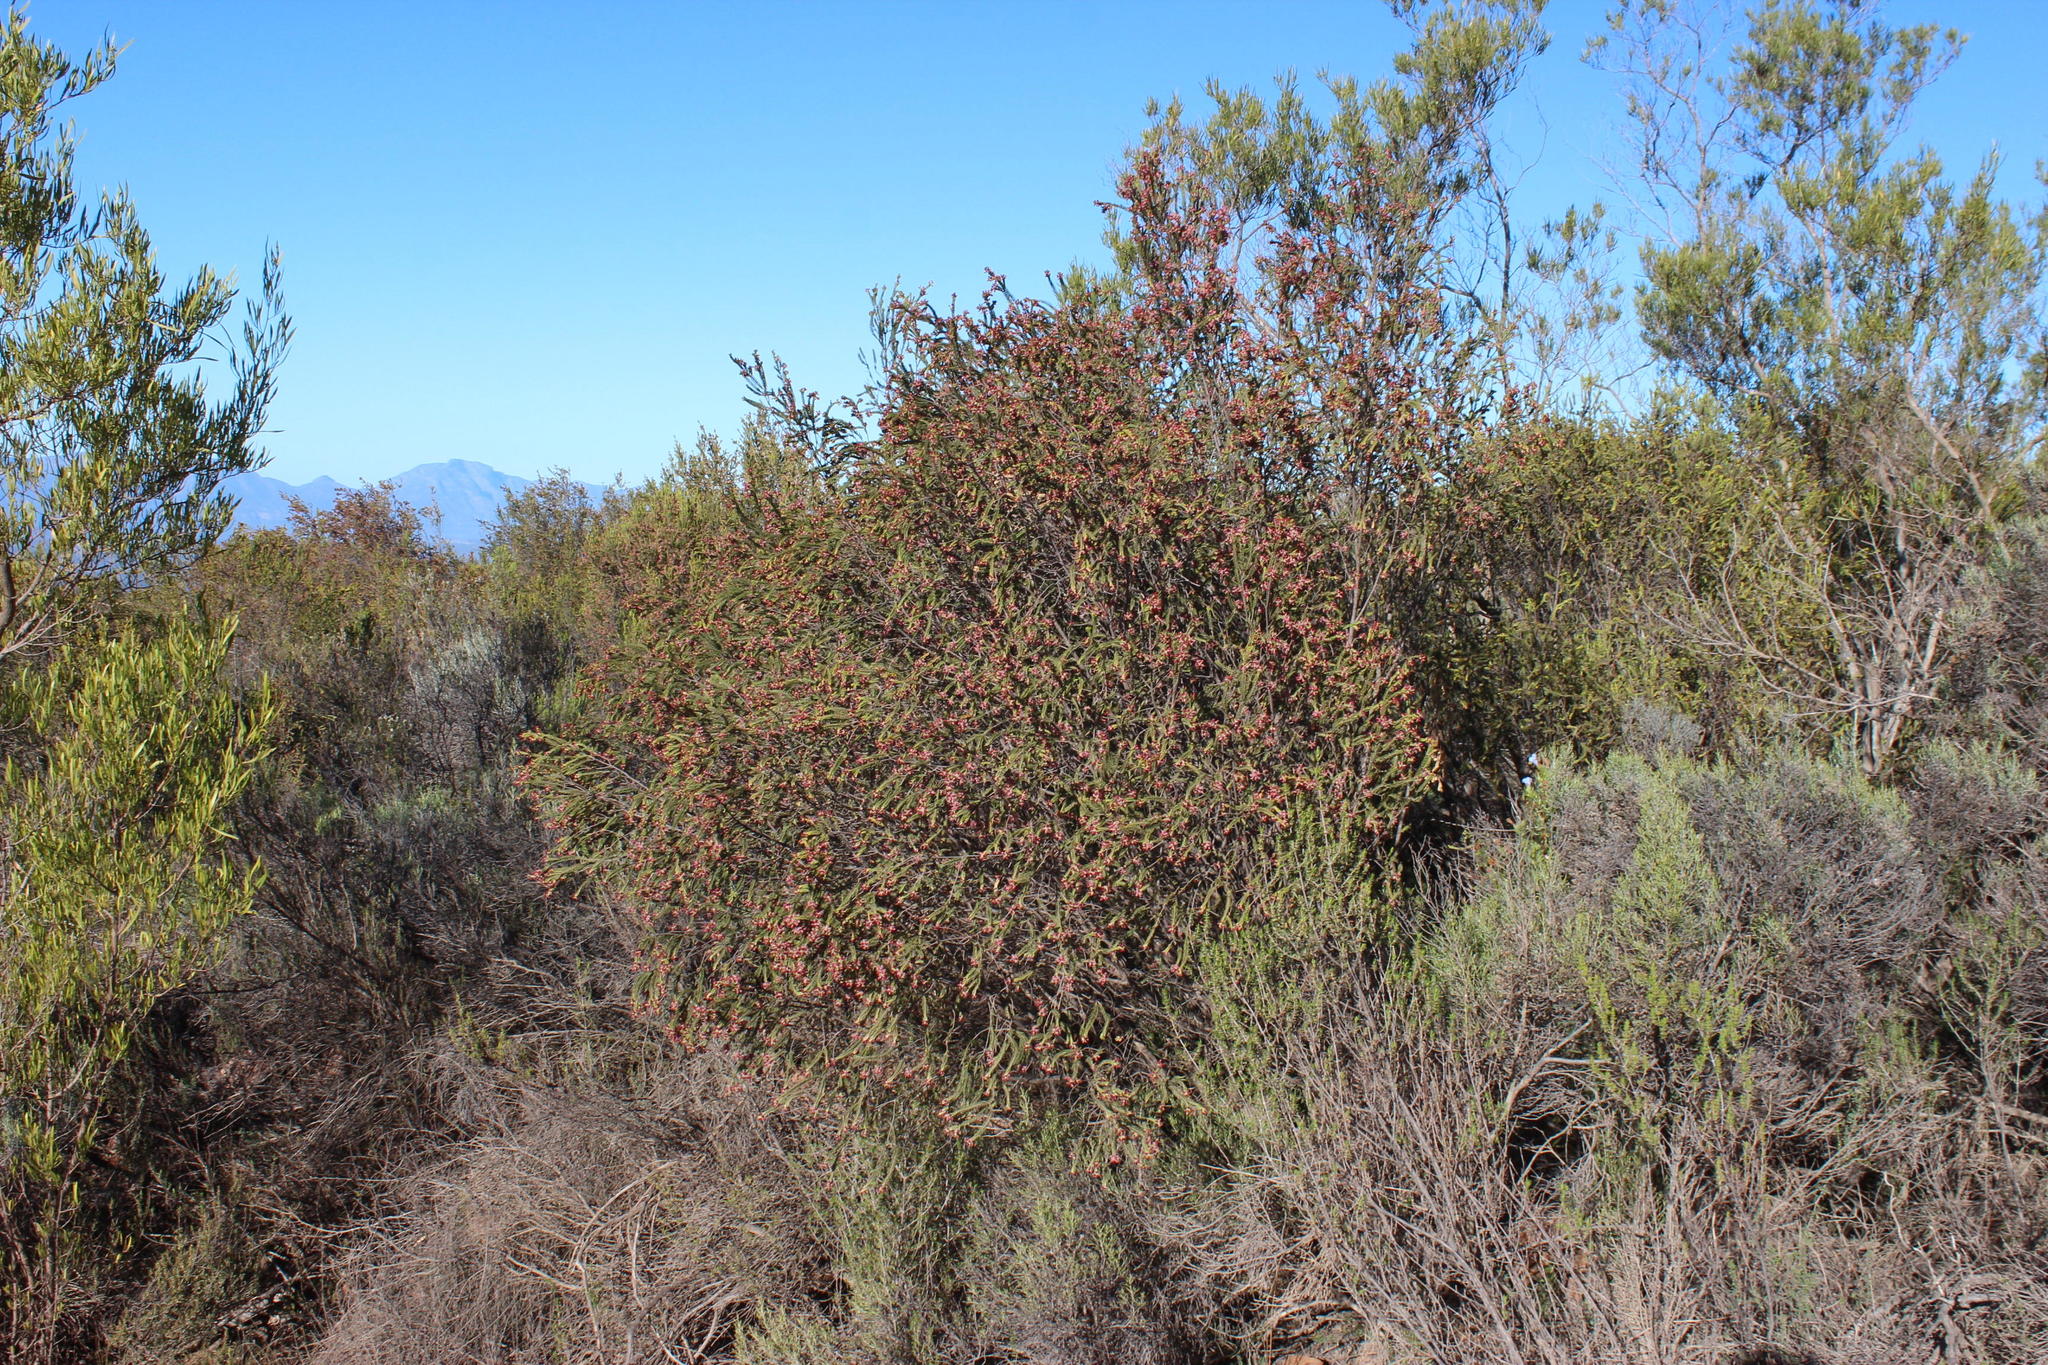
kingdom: Plantae
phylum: Tracheophyta
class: Magnoliopsida
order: Malvales
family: Thymelaeaceae
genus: Passerina
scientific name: Passerina obtusifolia
